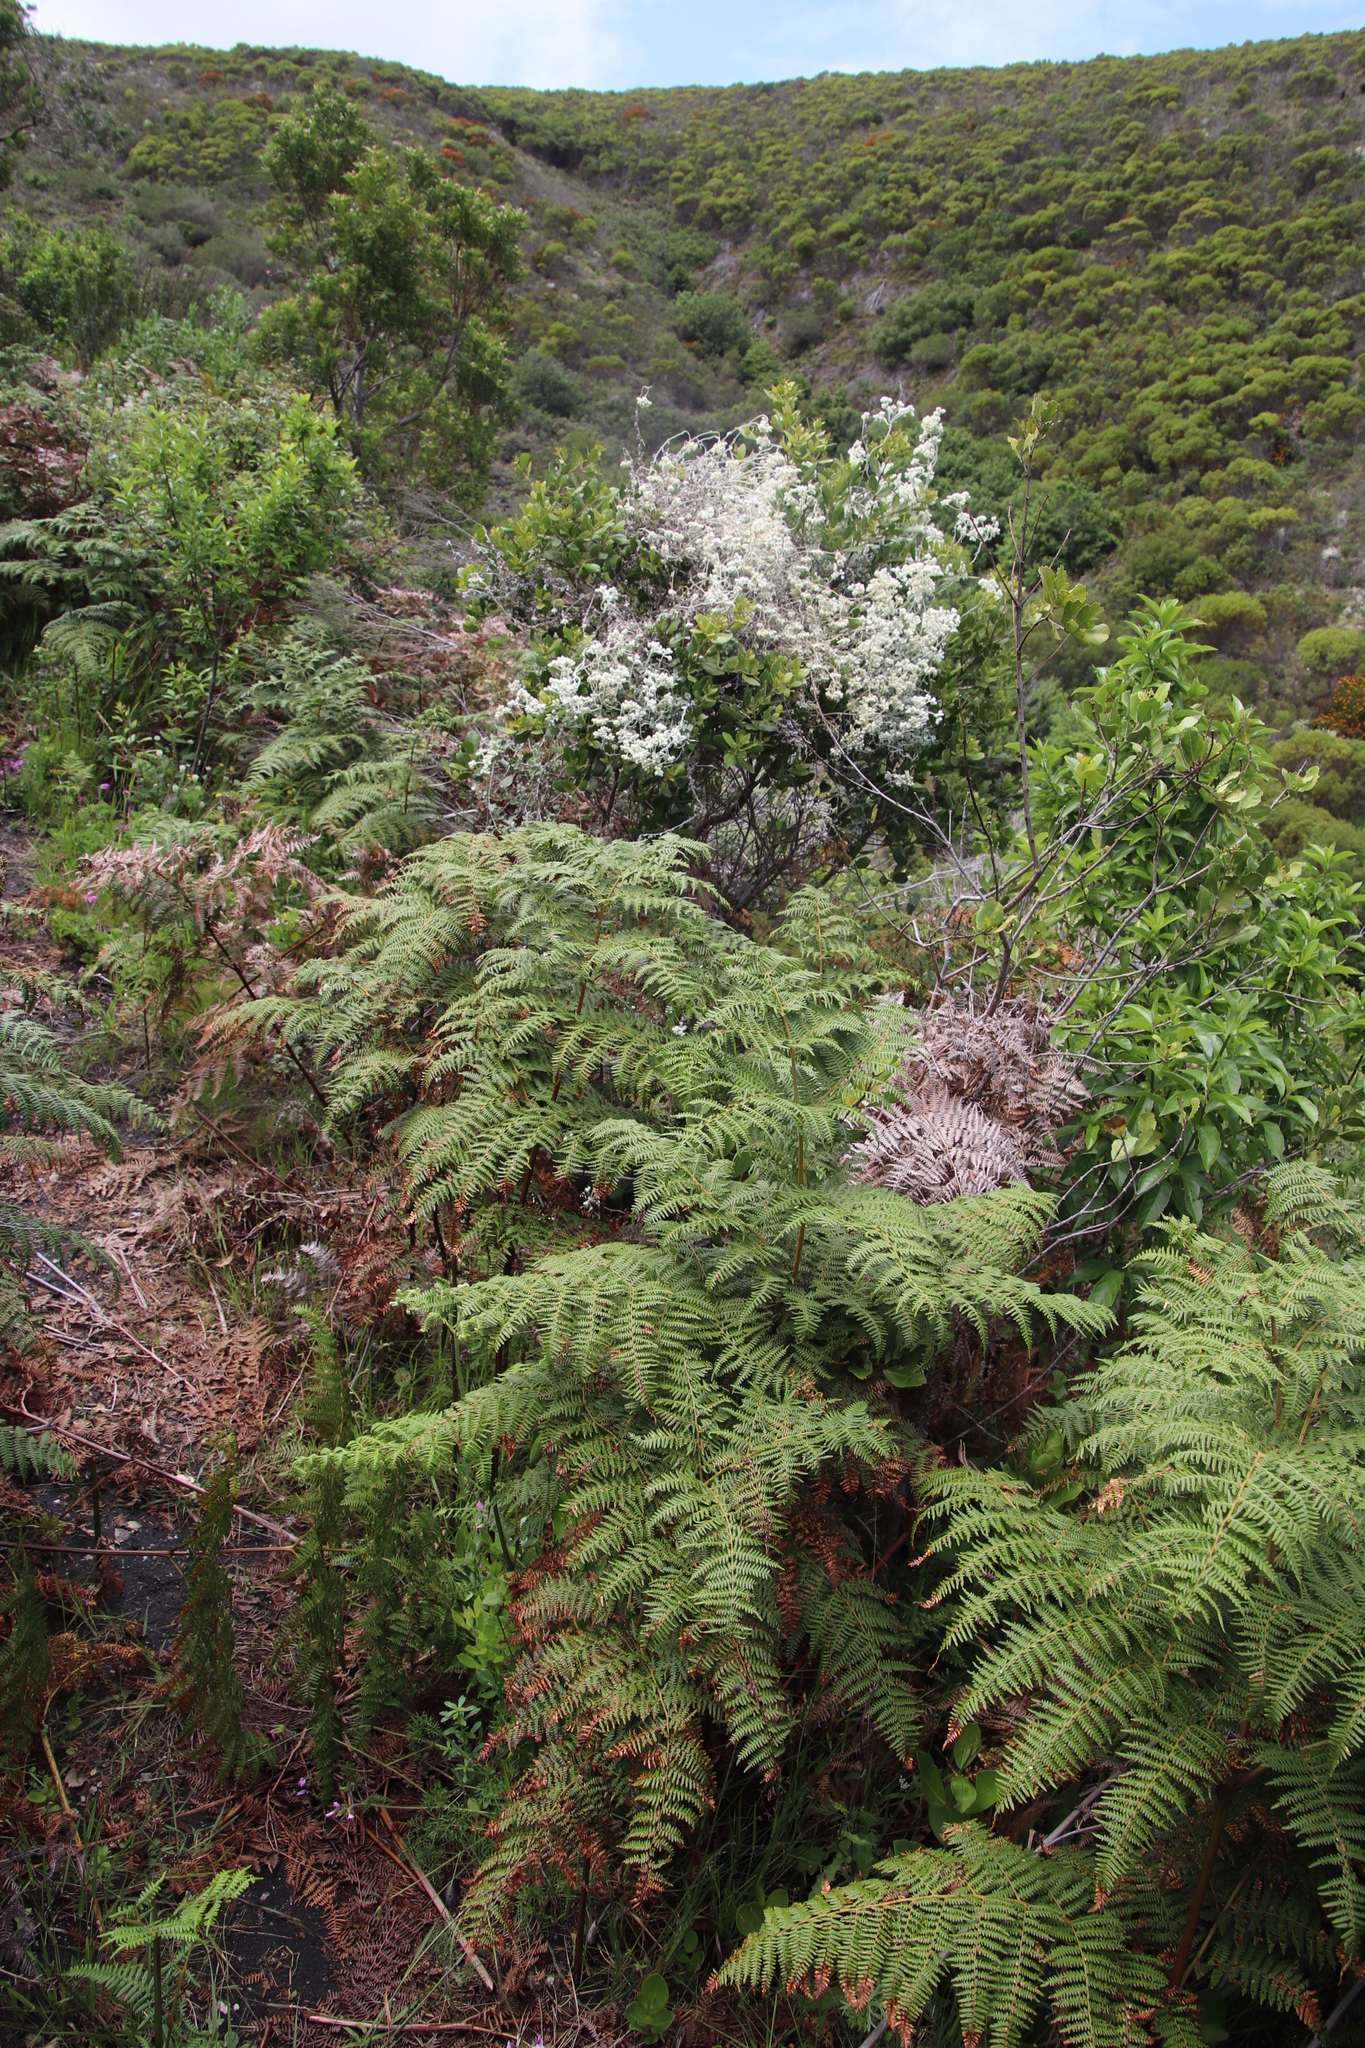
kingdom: Plantae
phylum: Tracheophyta
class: Polypodiopsida
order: Polypodiales
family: Dennstaedtiaceae
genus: Pteridium
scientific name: Pteridium aquilinum
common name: Bracken
